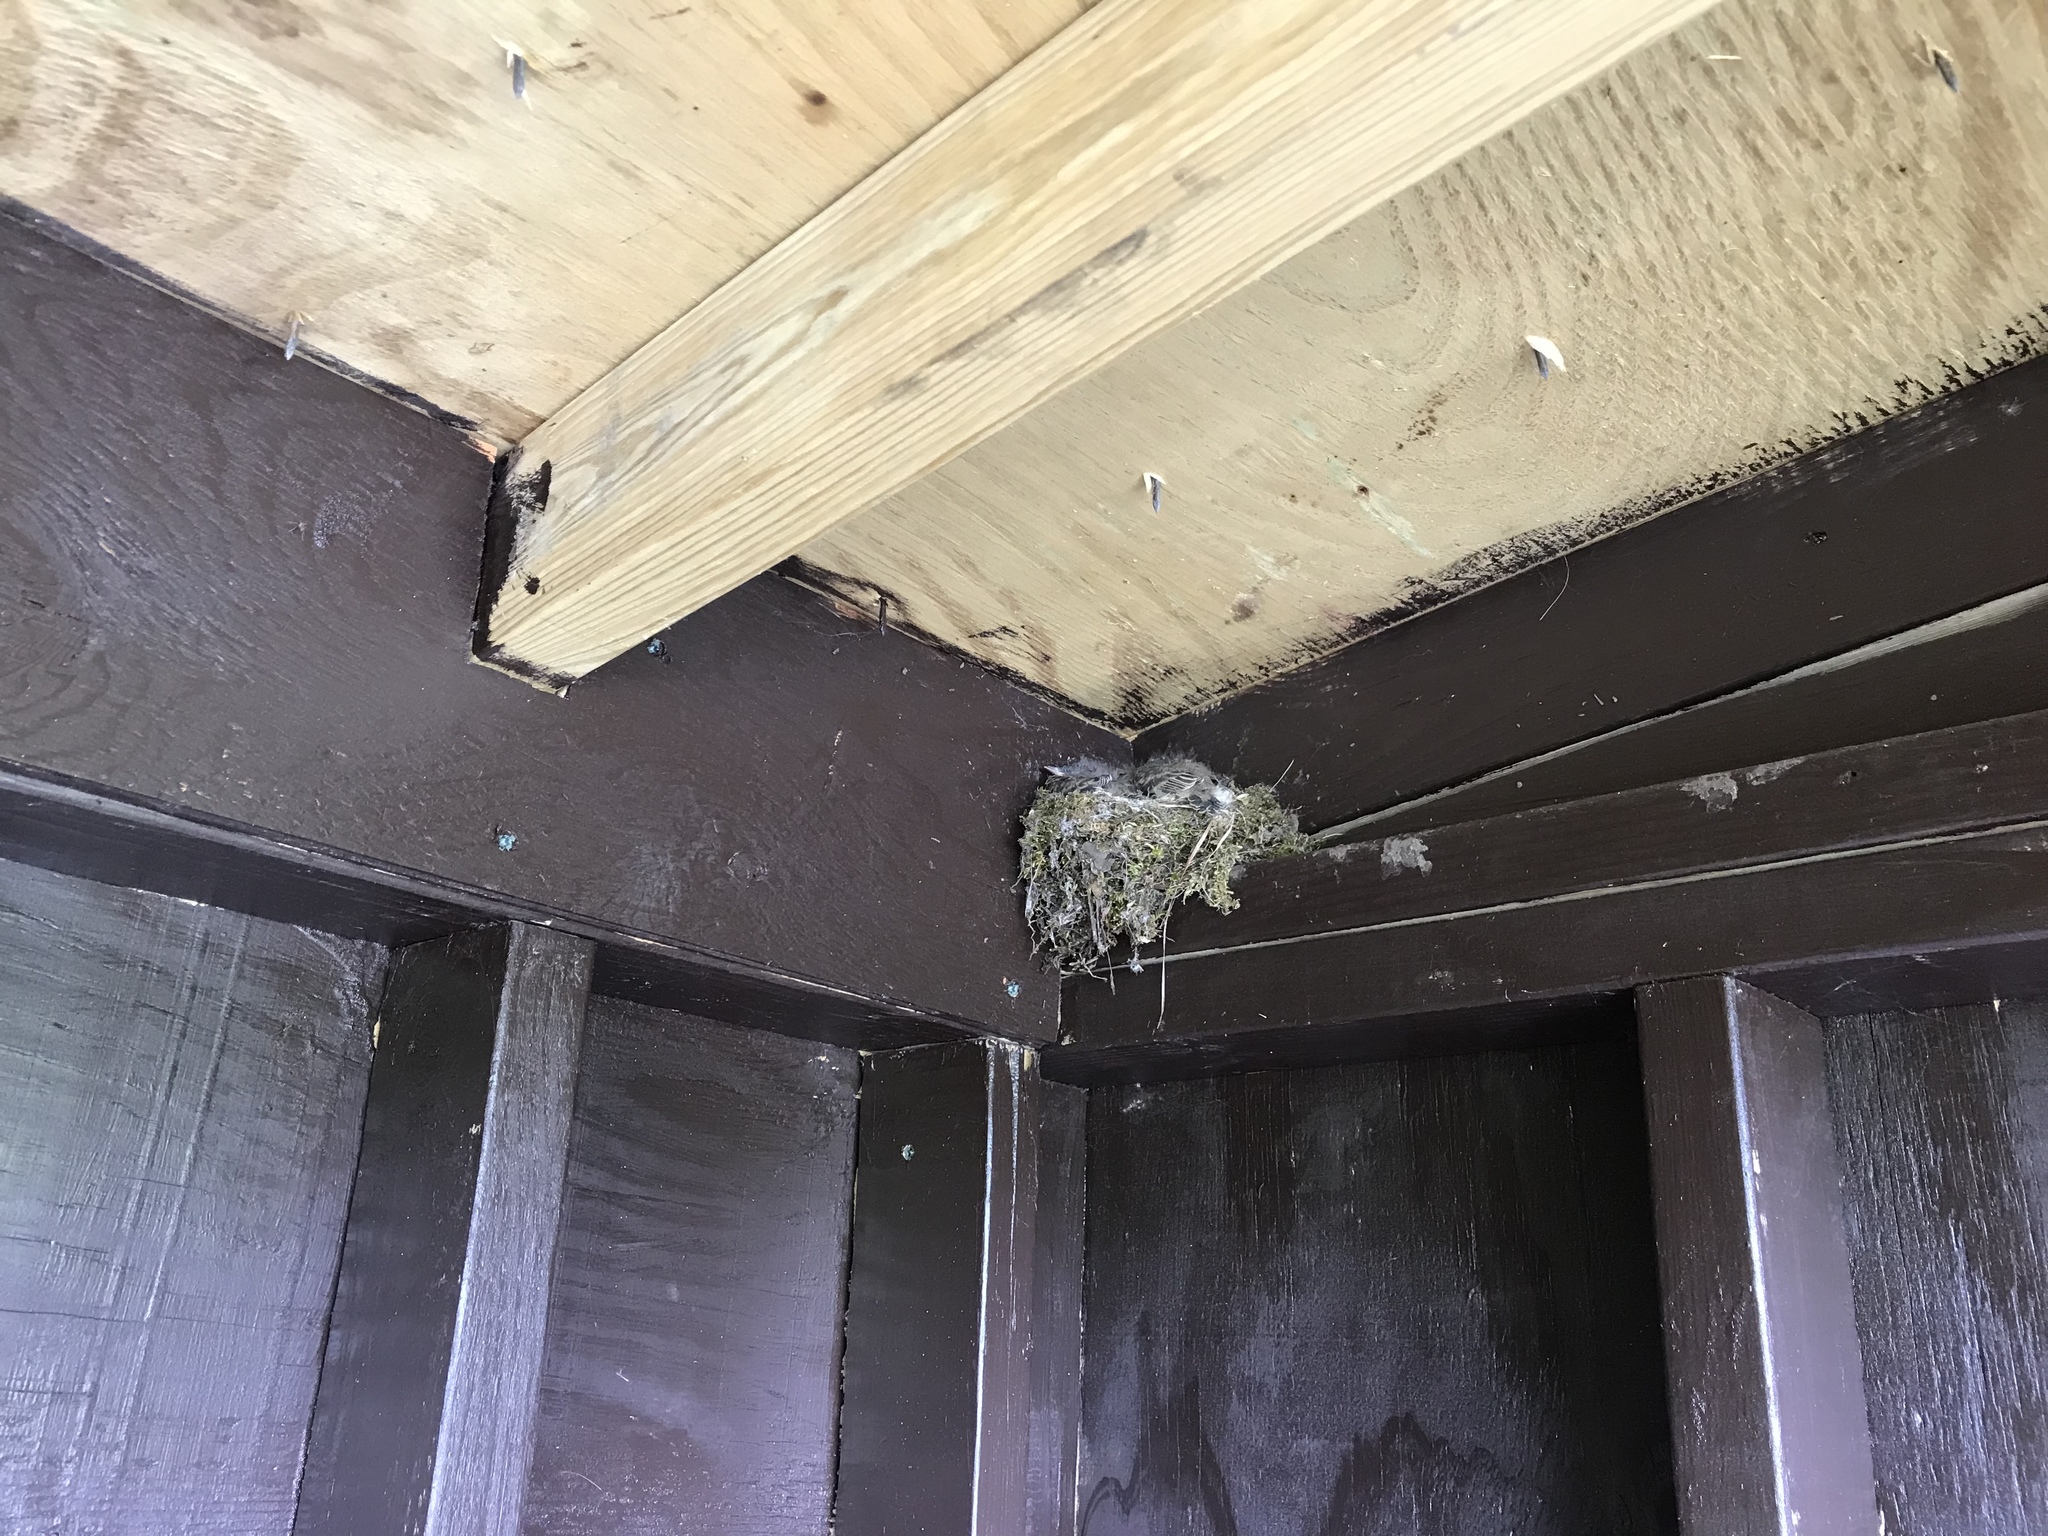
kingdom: Animalia
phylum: Chordata
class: Aves
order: Passeriformes
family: Tyrannidae
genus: Sayornis
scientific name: Sayornis phoebe
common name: Eastern phoebe
